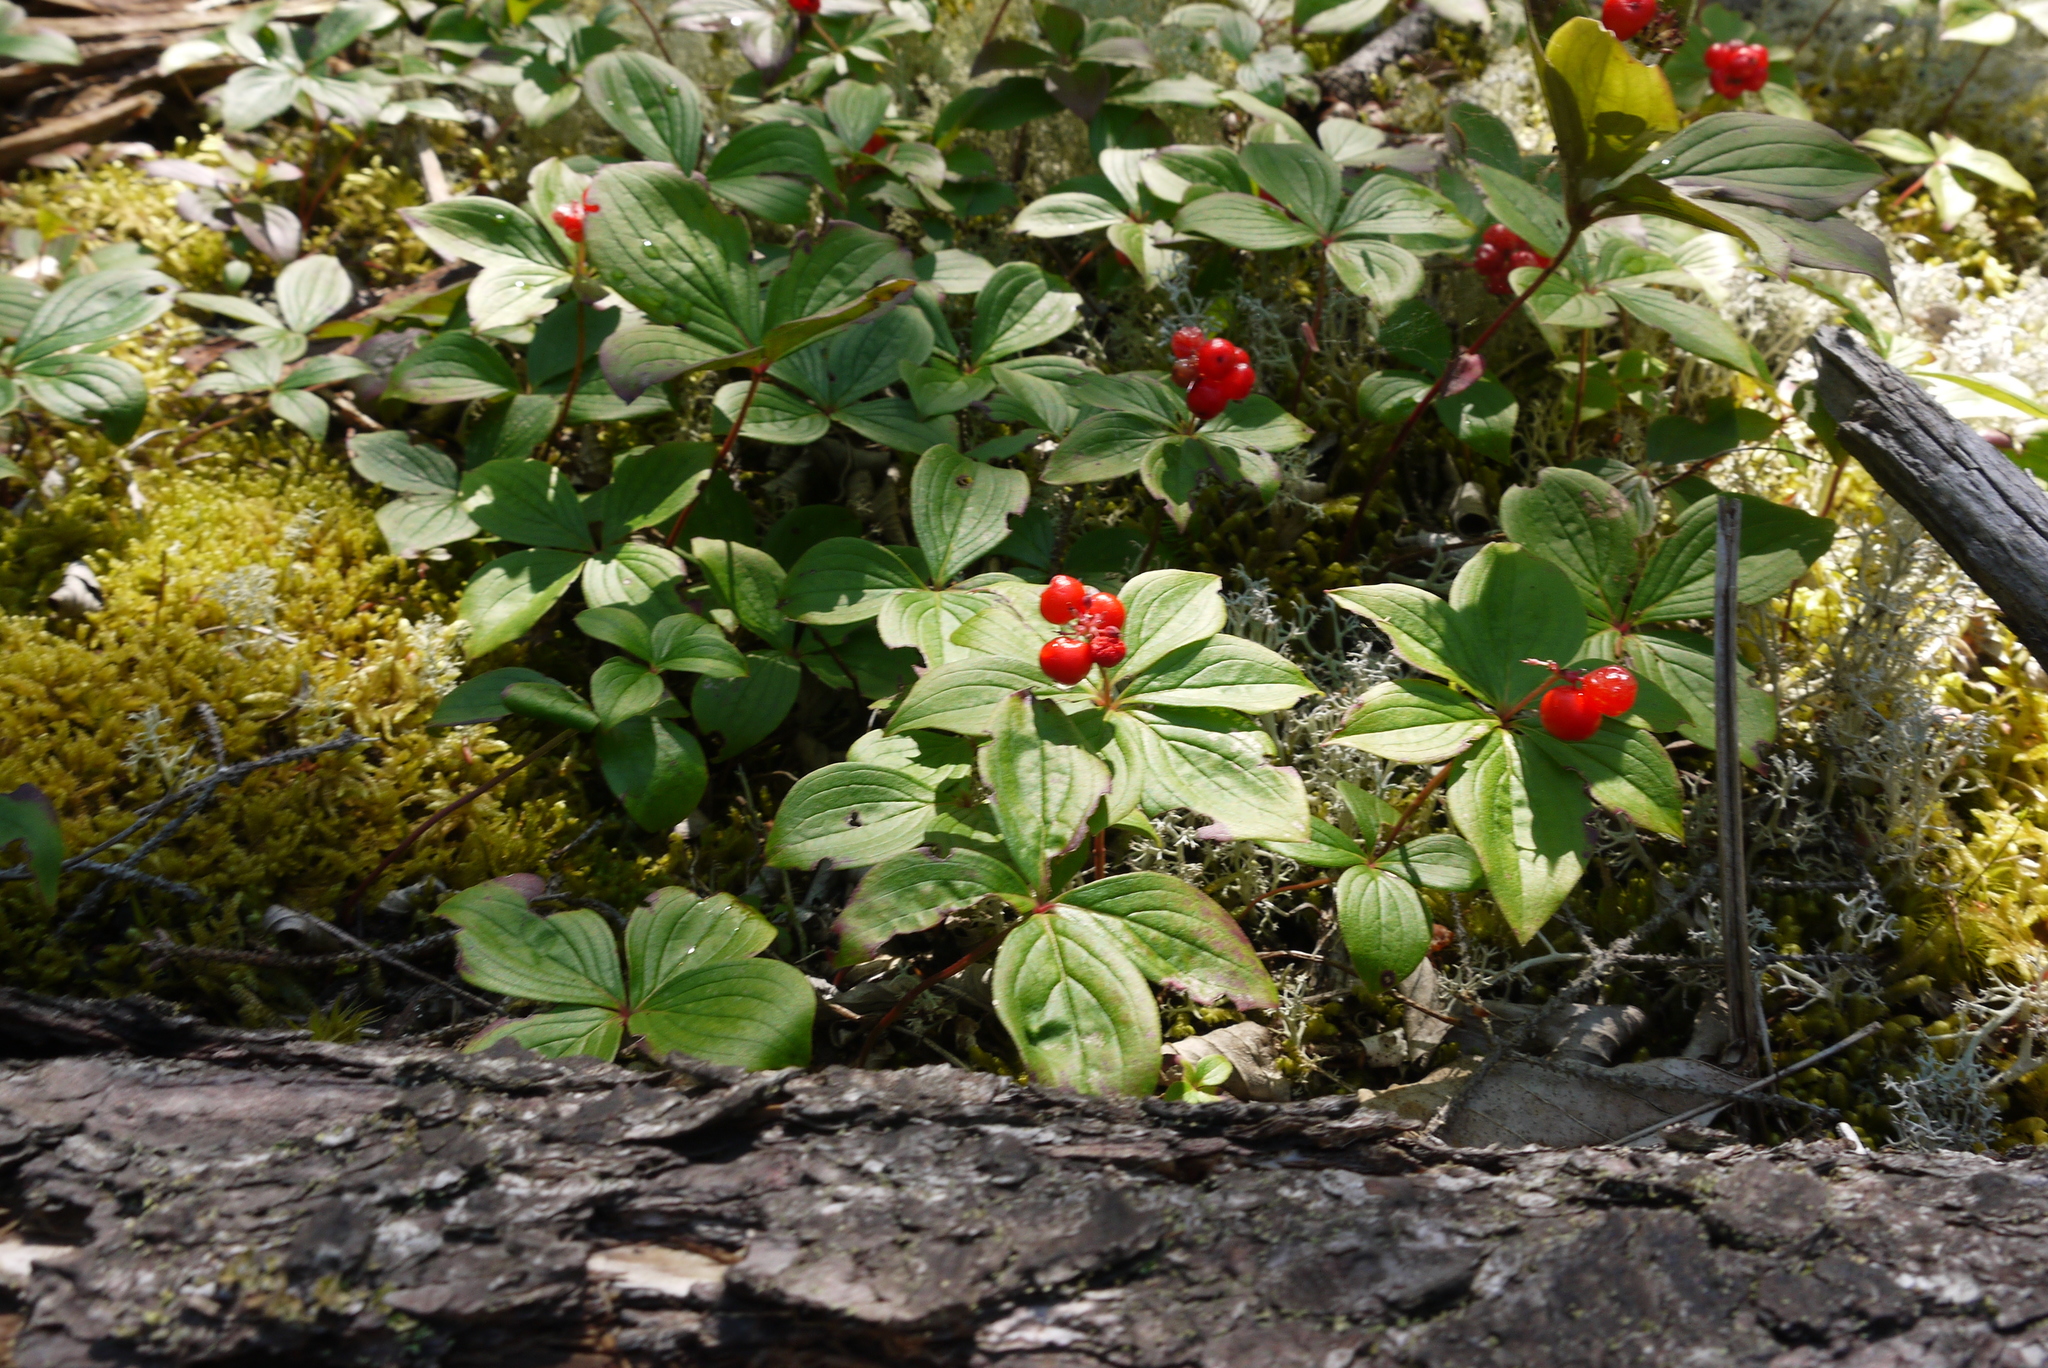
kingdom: Plantae
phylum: Tracheophyta
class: Magnoliopsida
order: Cornales
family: Cornaceae
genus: Cornus
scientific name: Cornus canadensis
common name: Creeping dogwood
